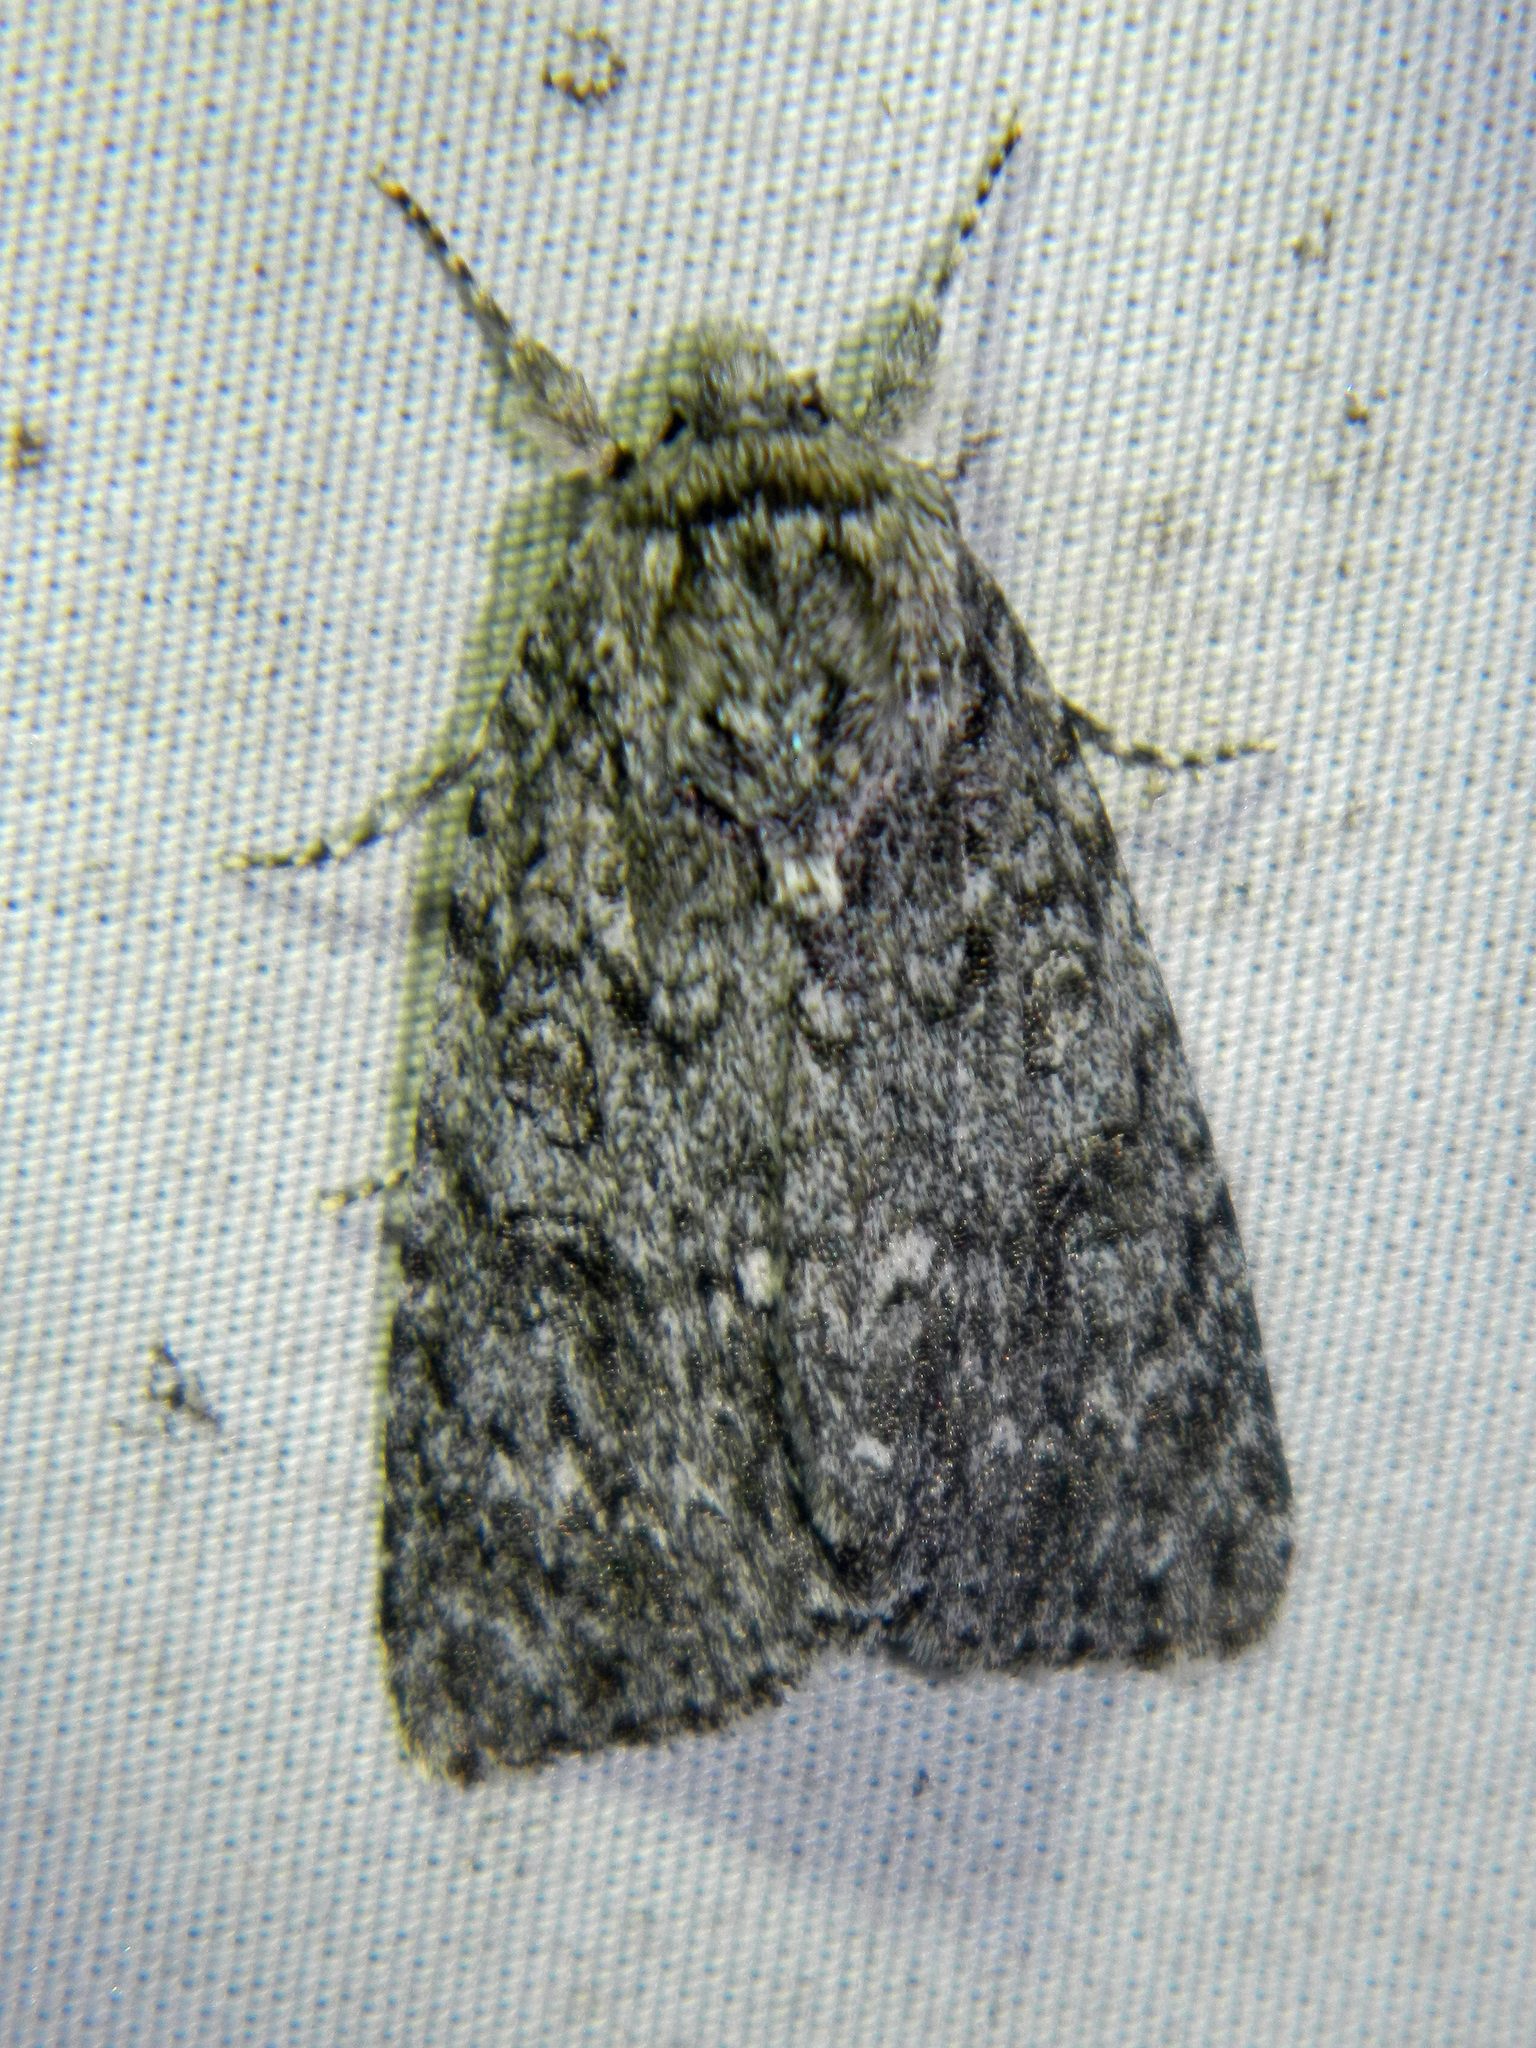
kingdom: Animalia
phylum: Arthropoda
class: Insecta
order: Lepidoptera
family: Noctuidae
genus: Acronicta
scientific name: Acronicta impleta
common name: Powdered dagger
